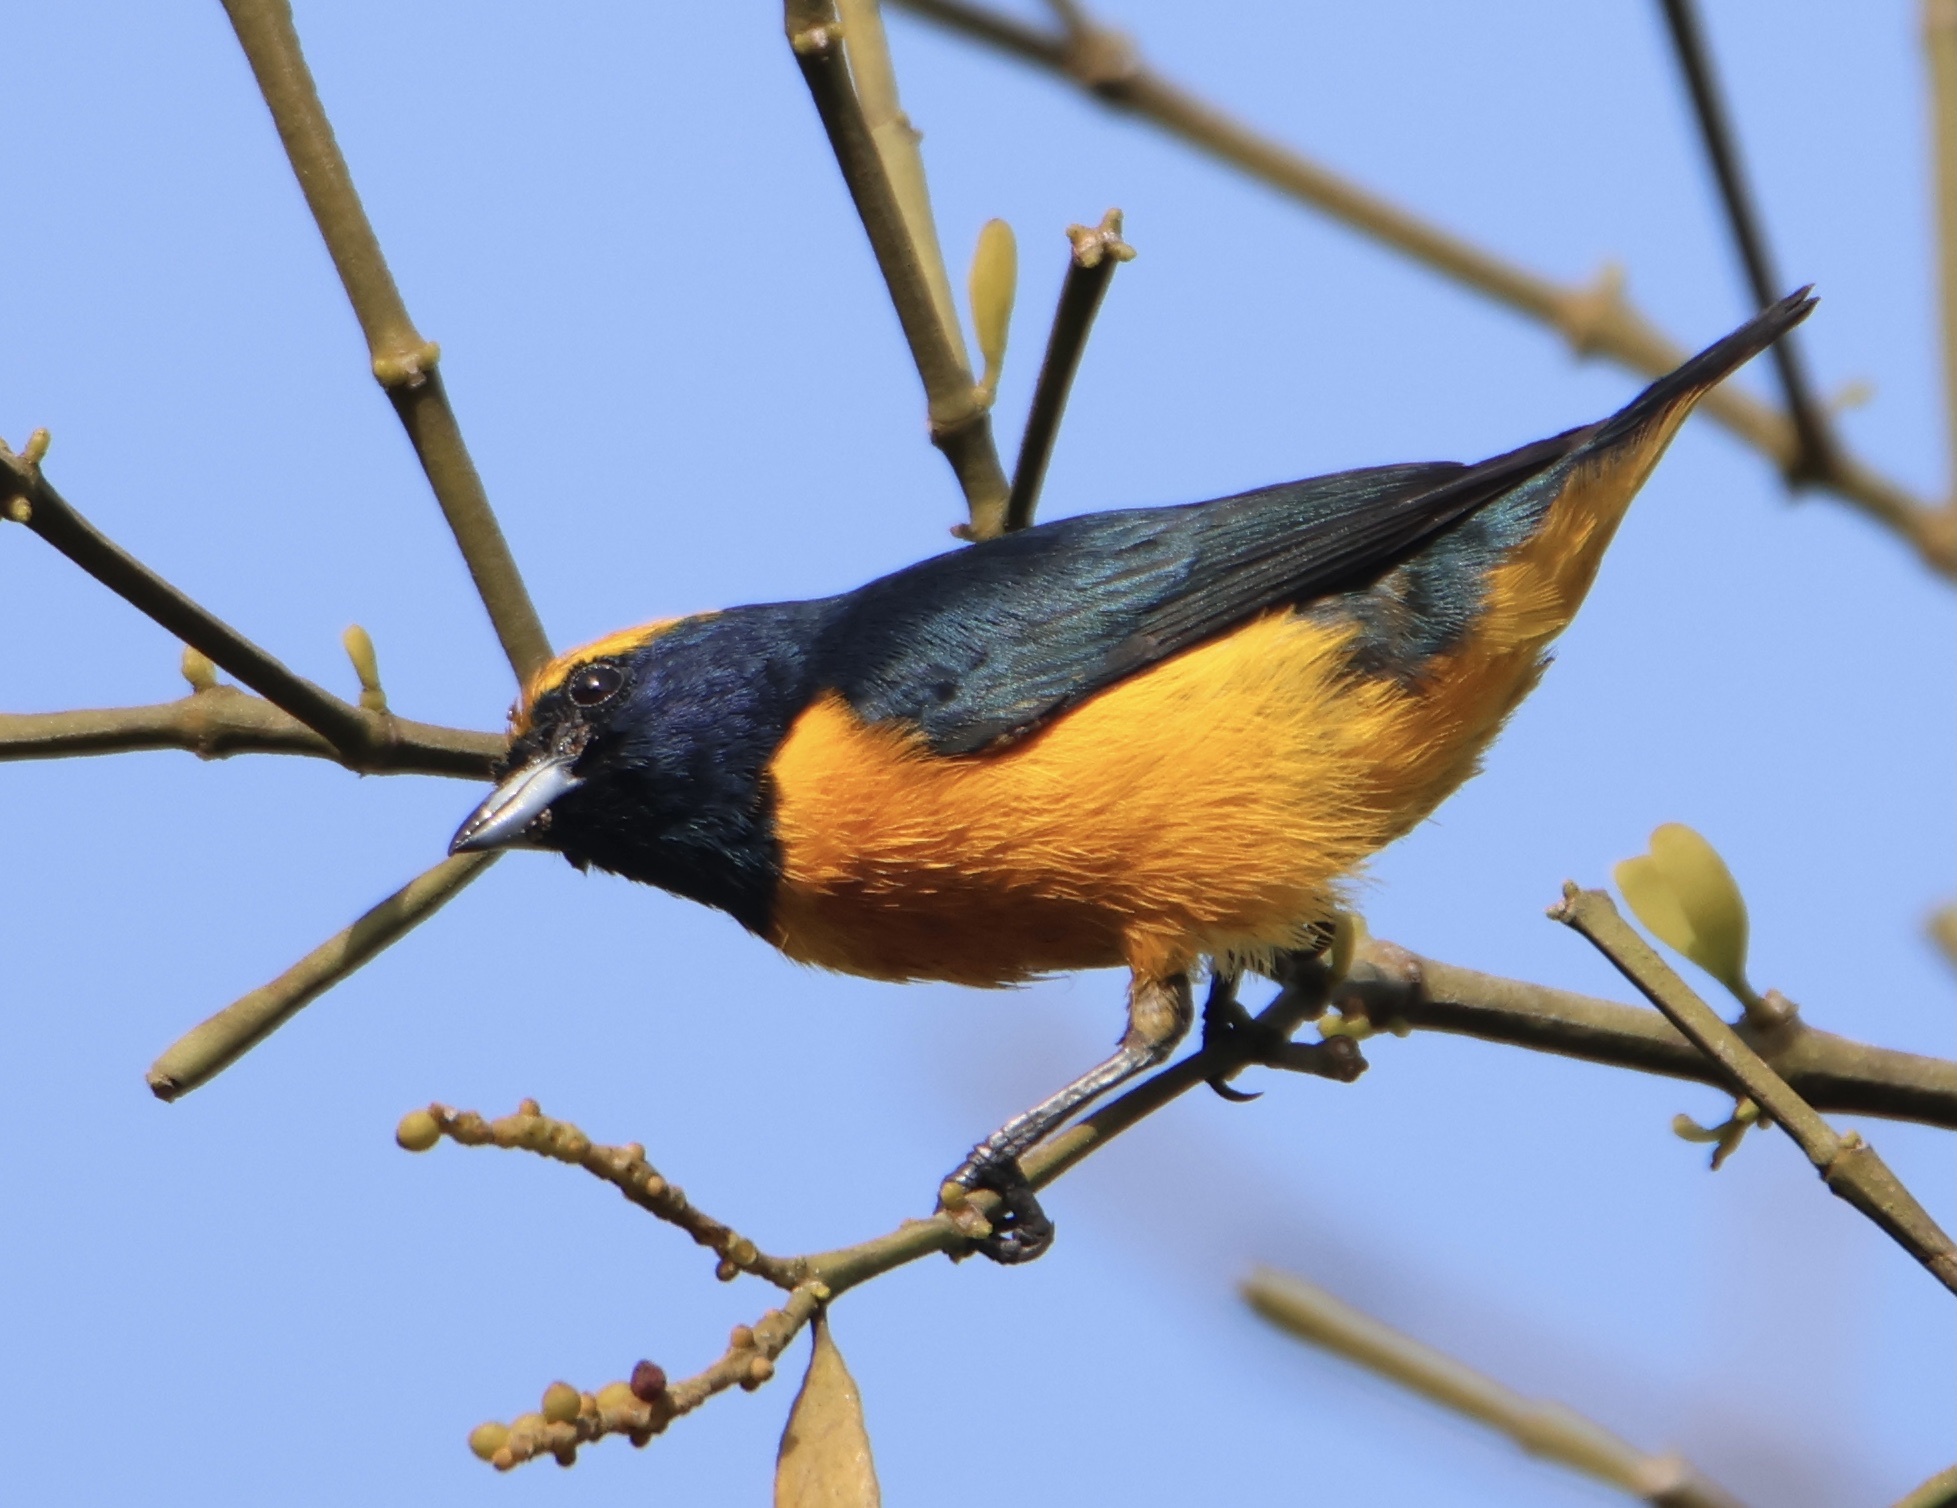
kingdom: Animalia
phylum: Chordata
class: Aves
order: Passeriformes
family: Fringillidae
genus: Euphonia
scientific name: Euphonia luteicapilla
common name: Yellow-crowned euphonia
